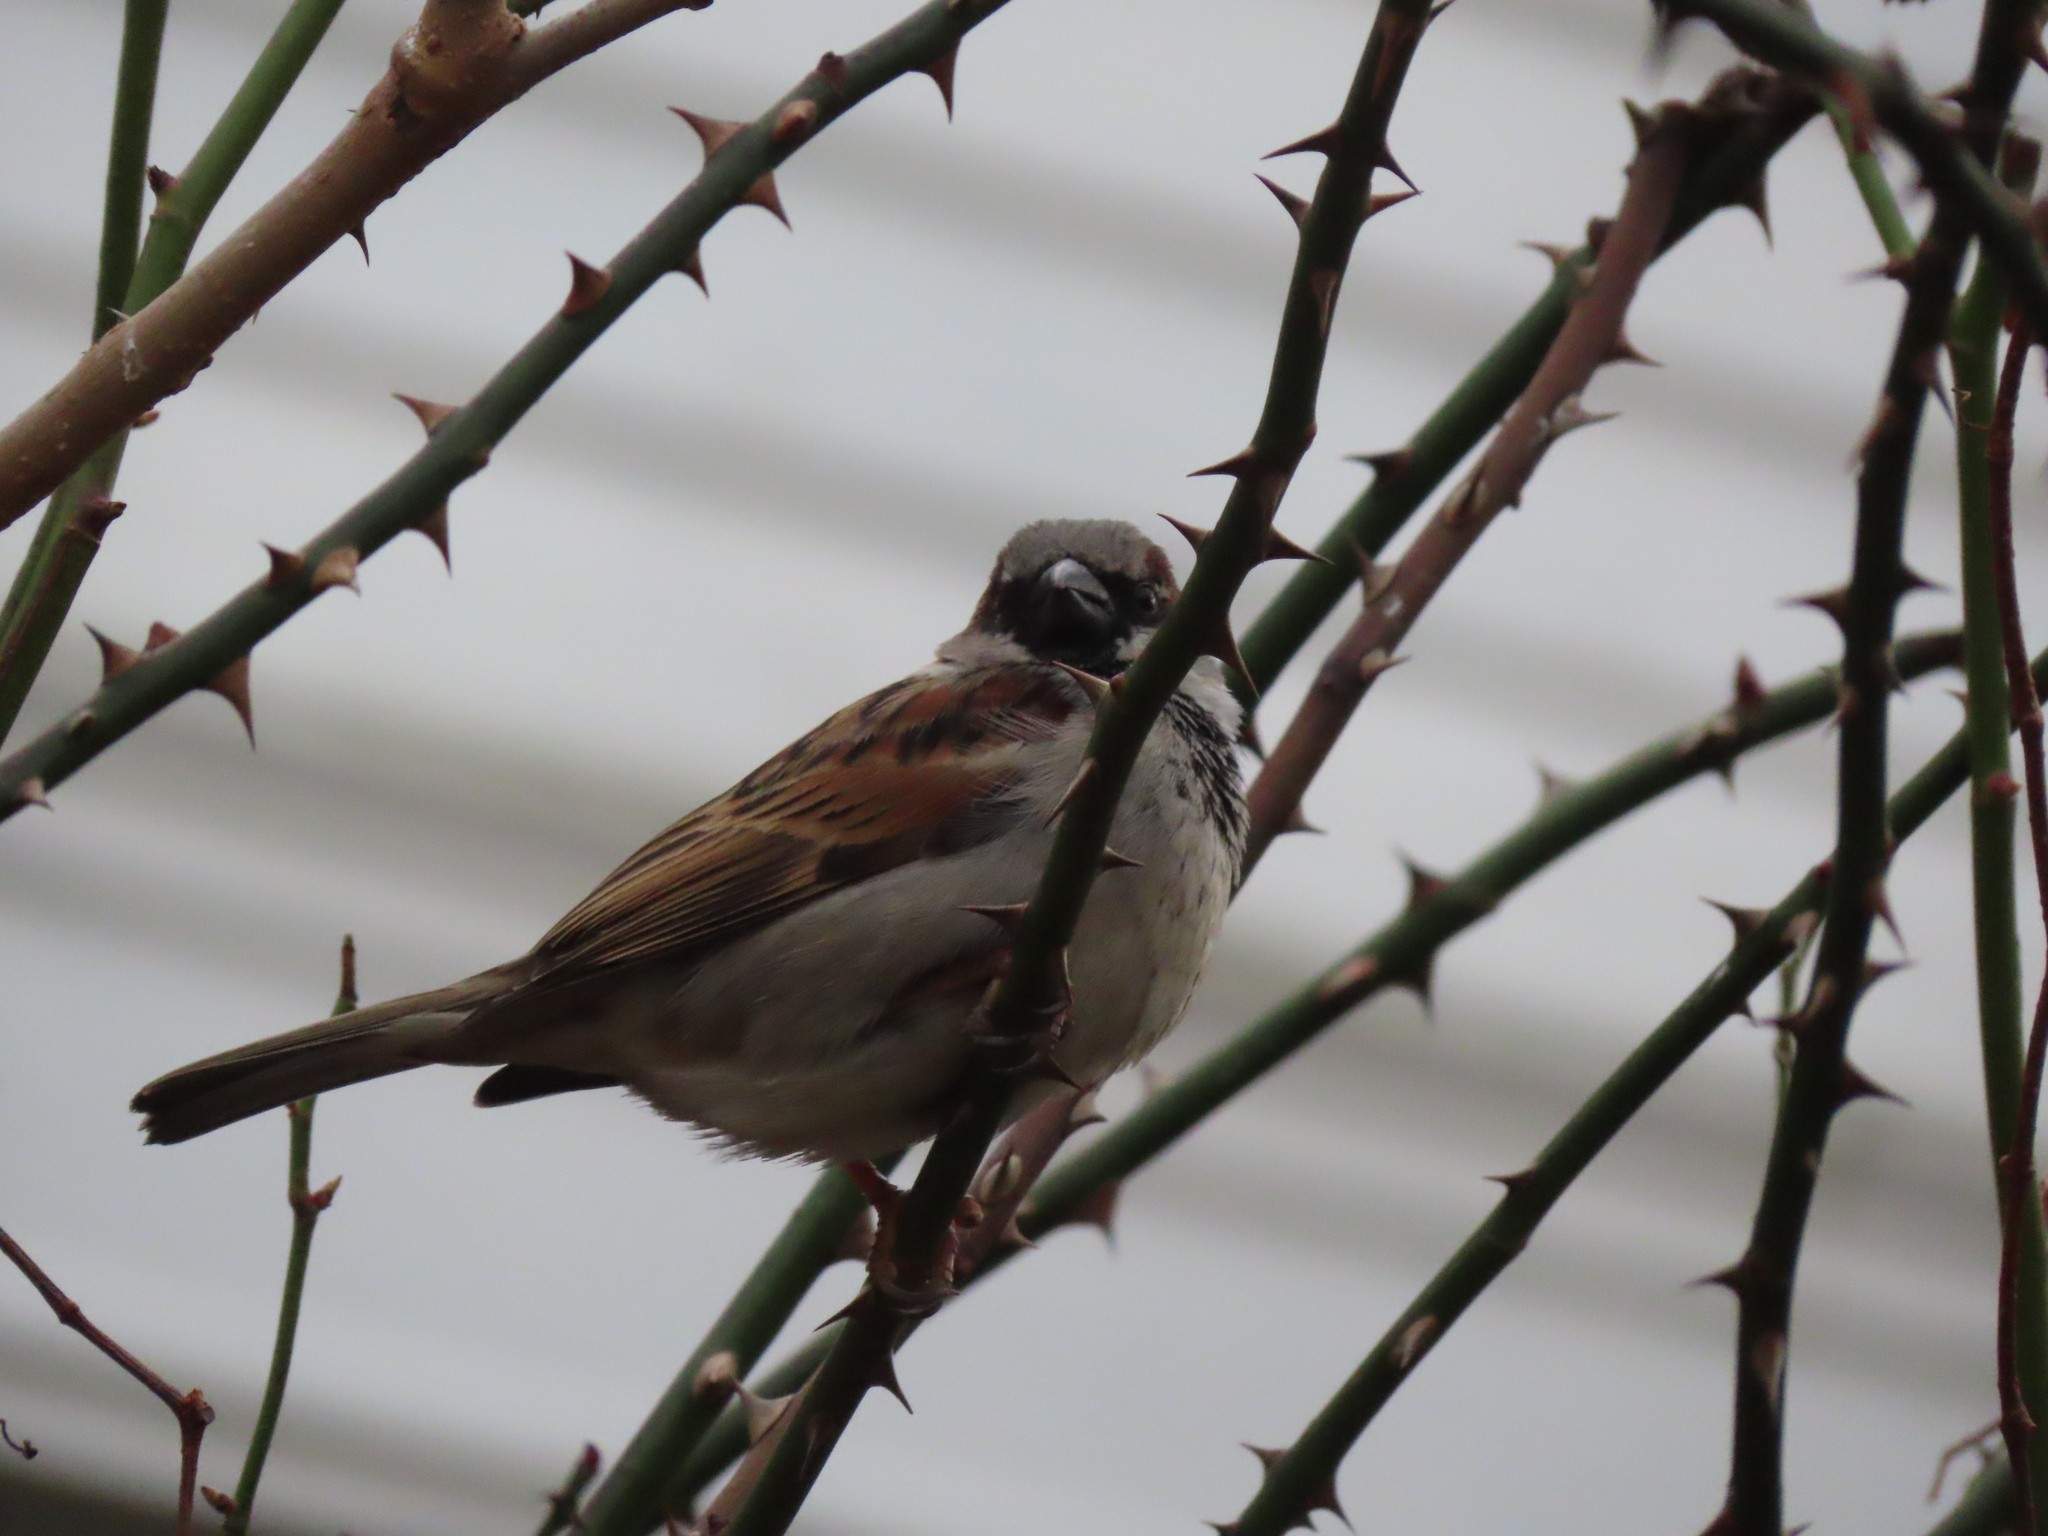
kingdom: Animalia
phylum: Chordata
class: Aves
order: Passeriformes
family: Passeridae
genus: Passer
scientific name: Passer domesticus
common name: House sparrow
